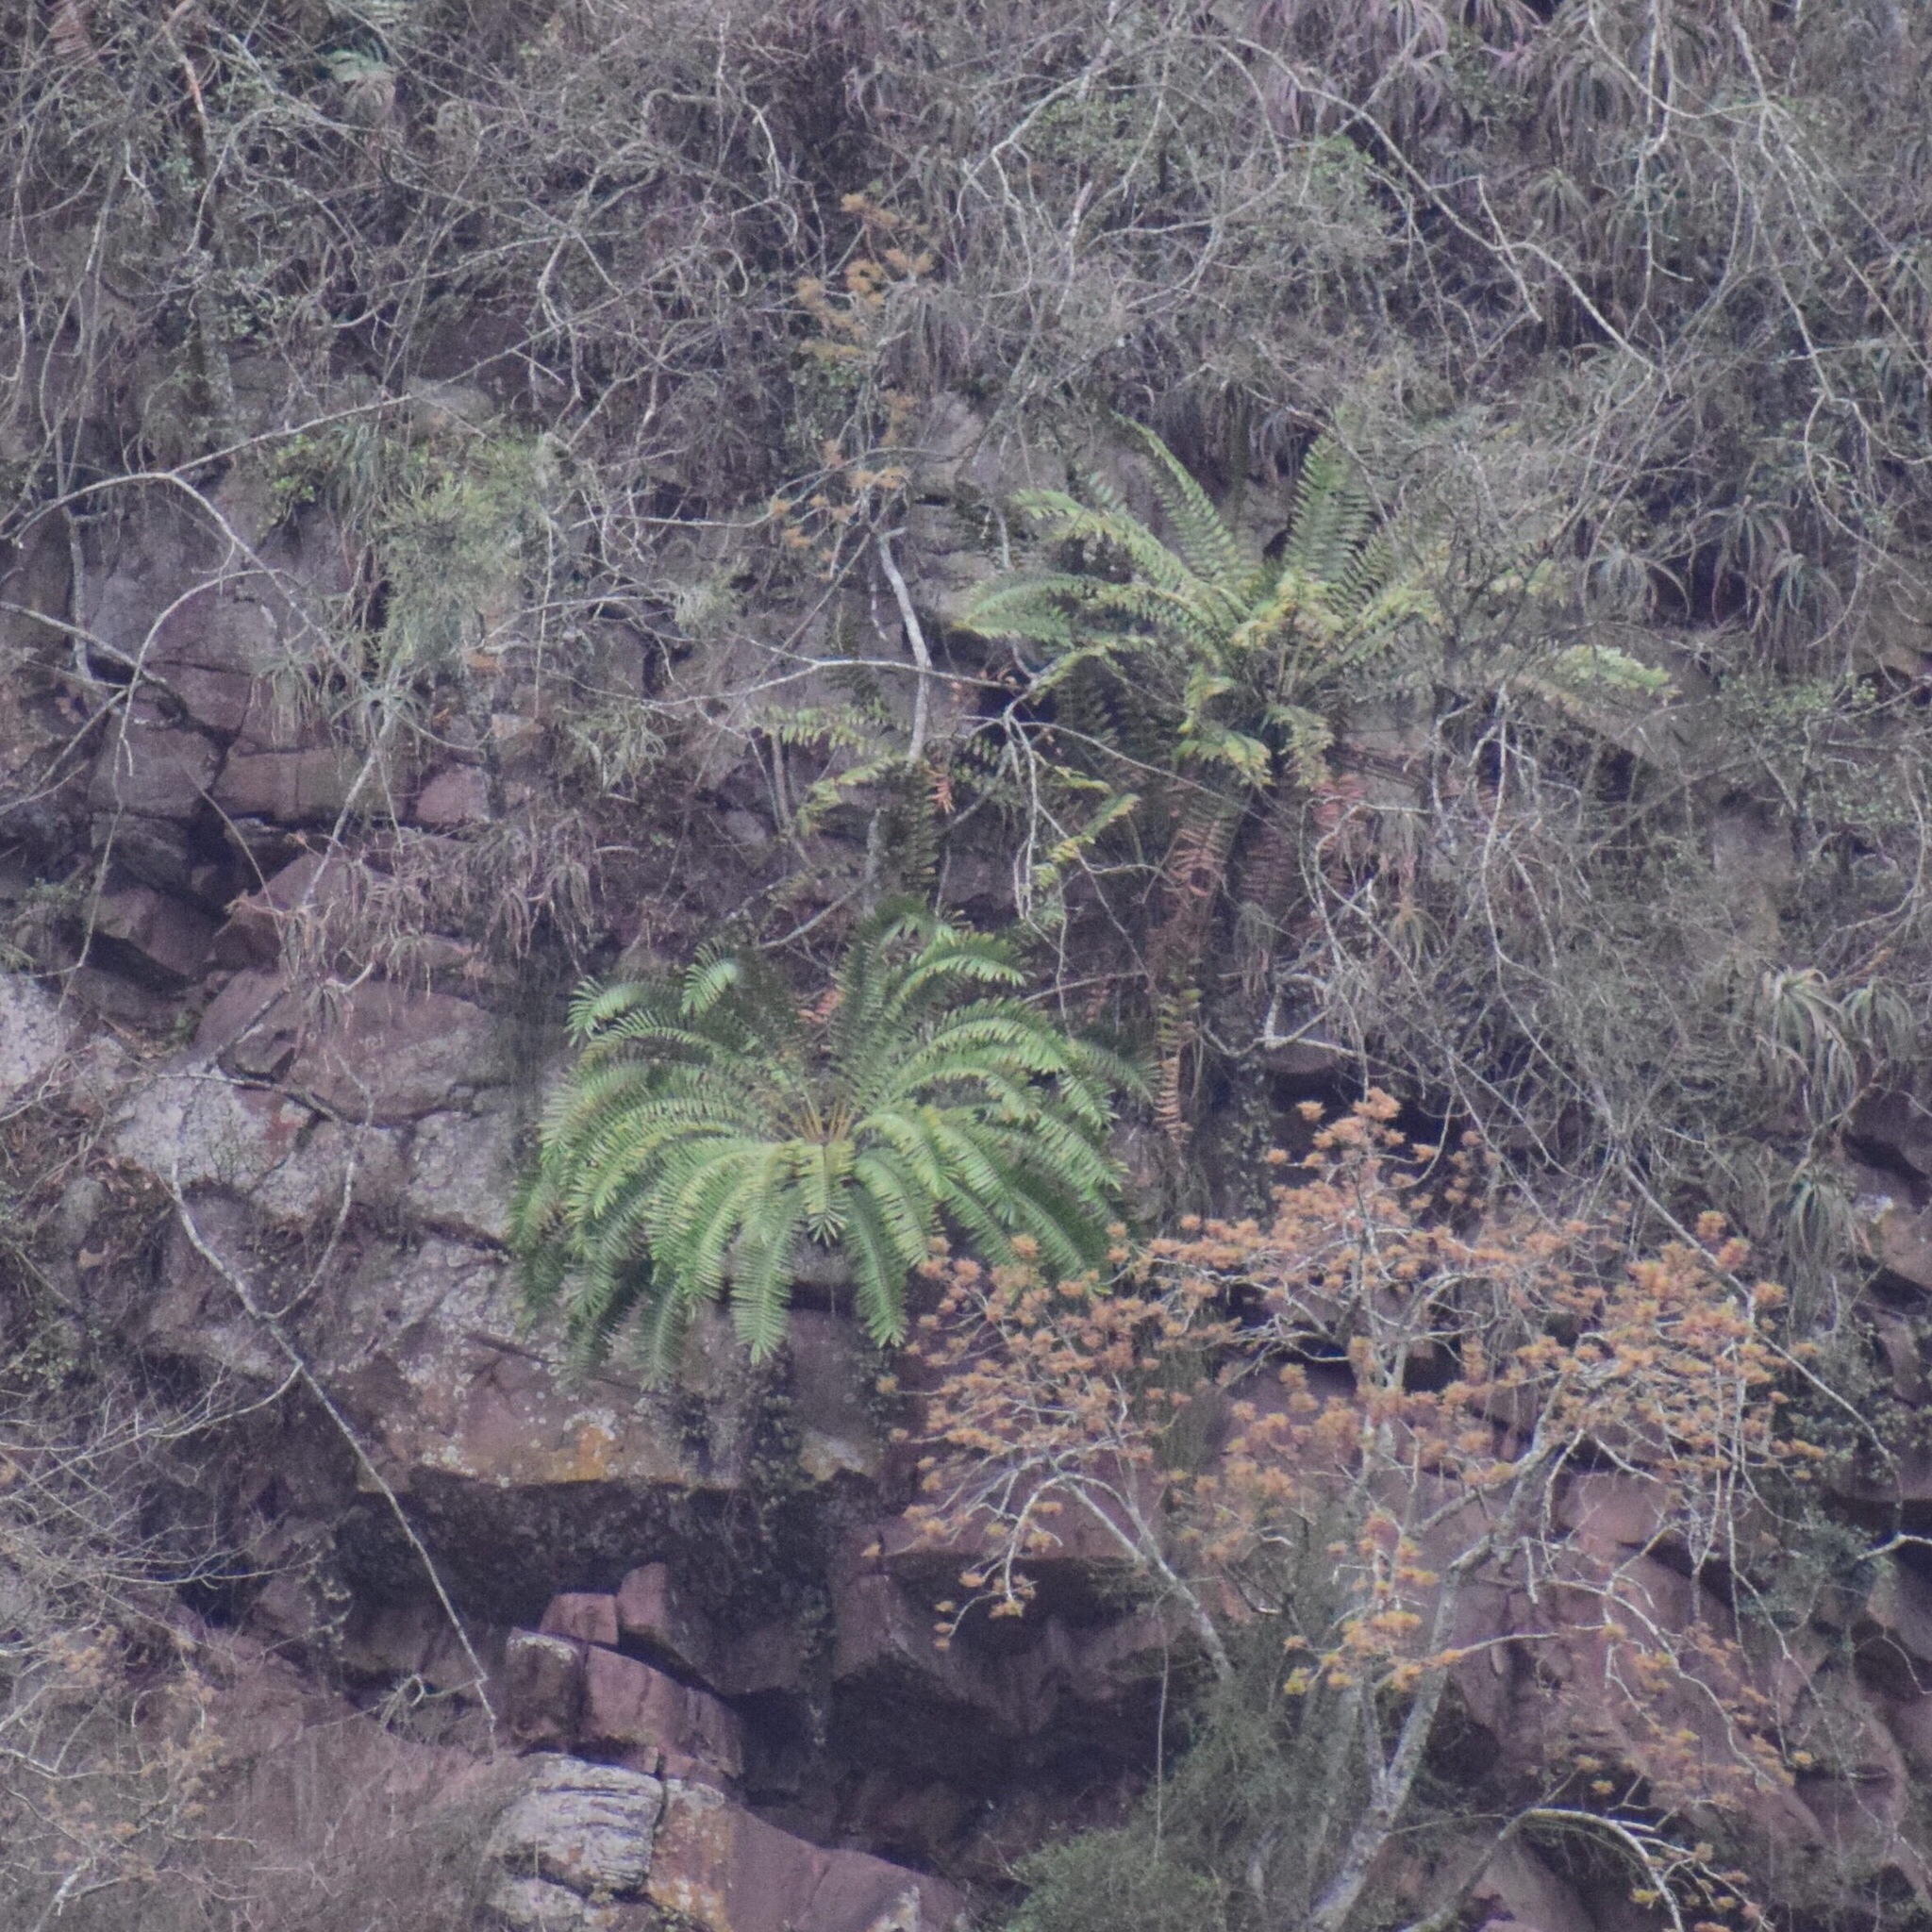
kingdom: Plantae
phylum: Tracheophyta
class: Cycadopsida
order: Cycadales
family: Zamiaceae
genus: Encephalartos
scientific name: Encephalartos natalensis
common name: Natal cycad
